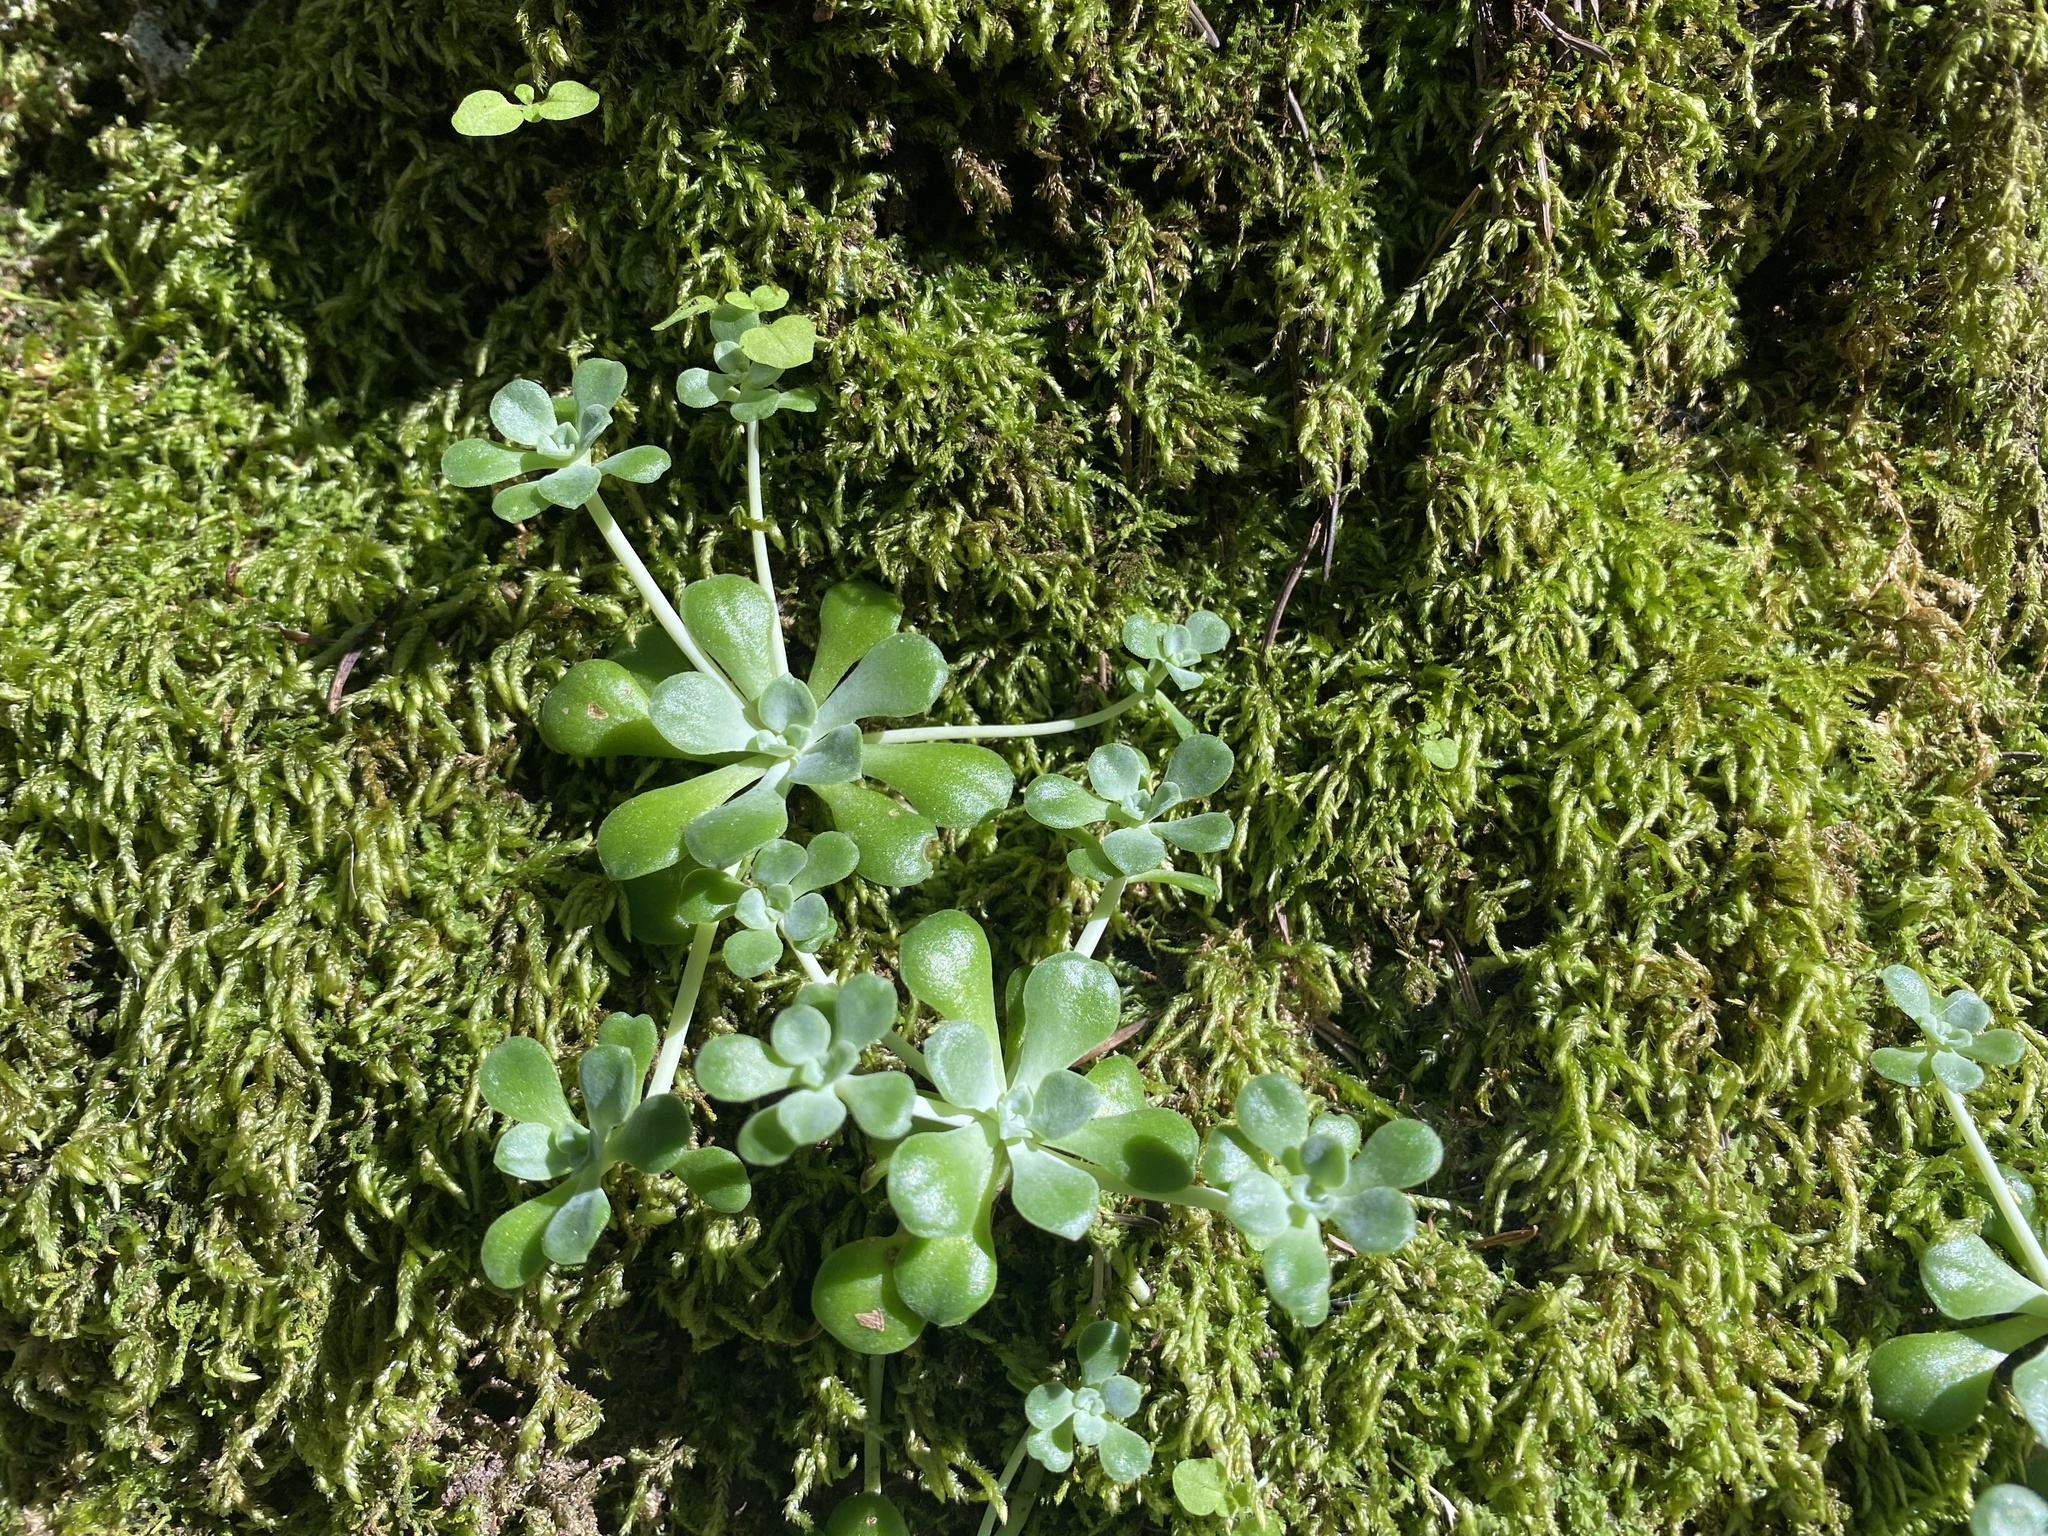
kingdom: Plantae
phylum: Tracheophyta
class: Magnoliopsida
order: Saxifragales
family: Crassulaceae
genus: Sedum
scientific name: Sedum spathulifolium
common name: Colorado stonecrop
